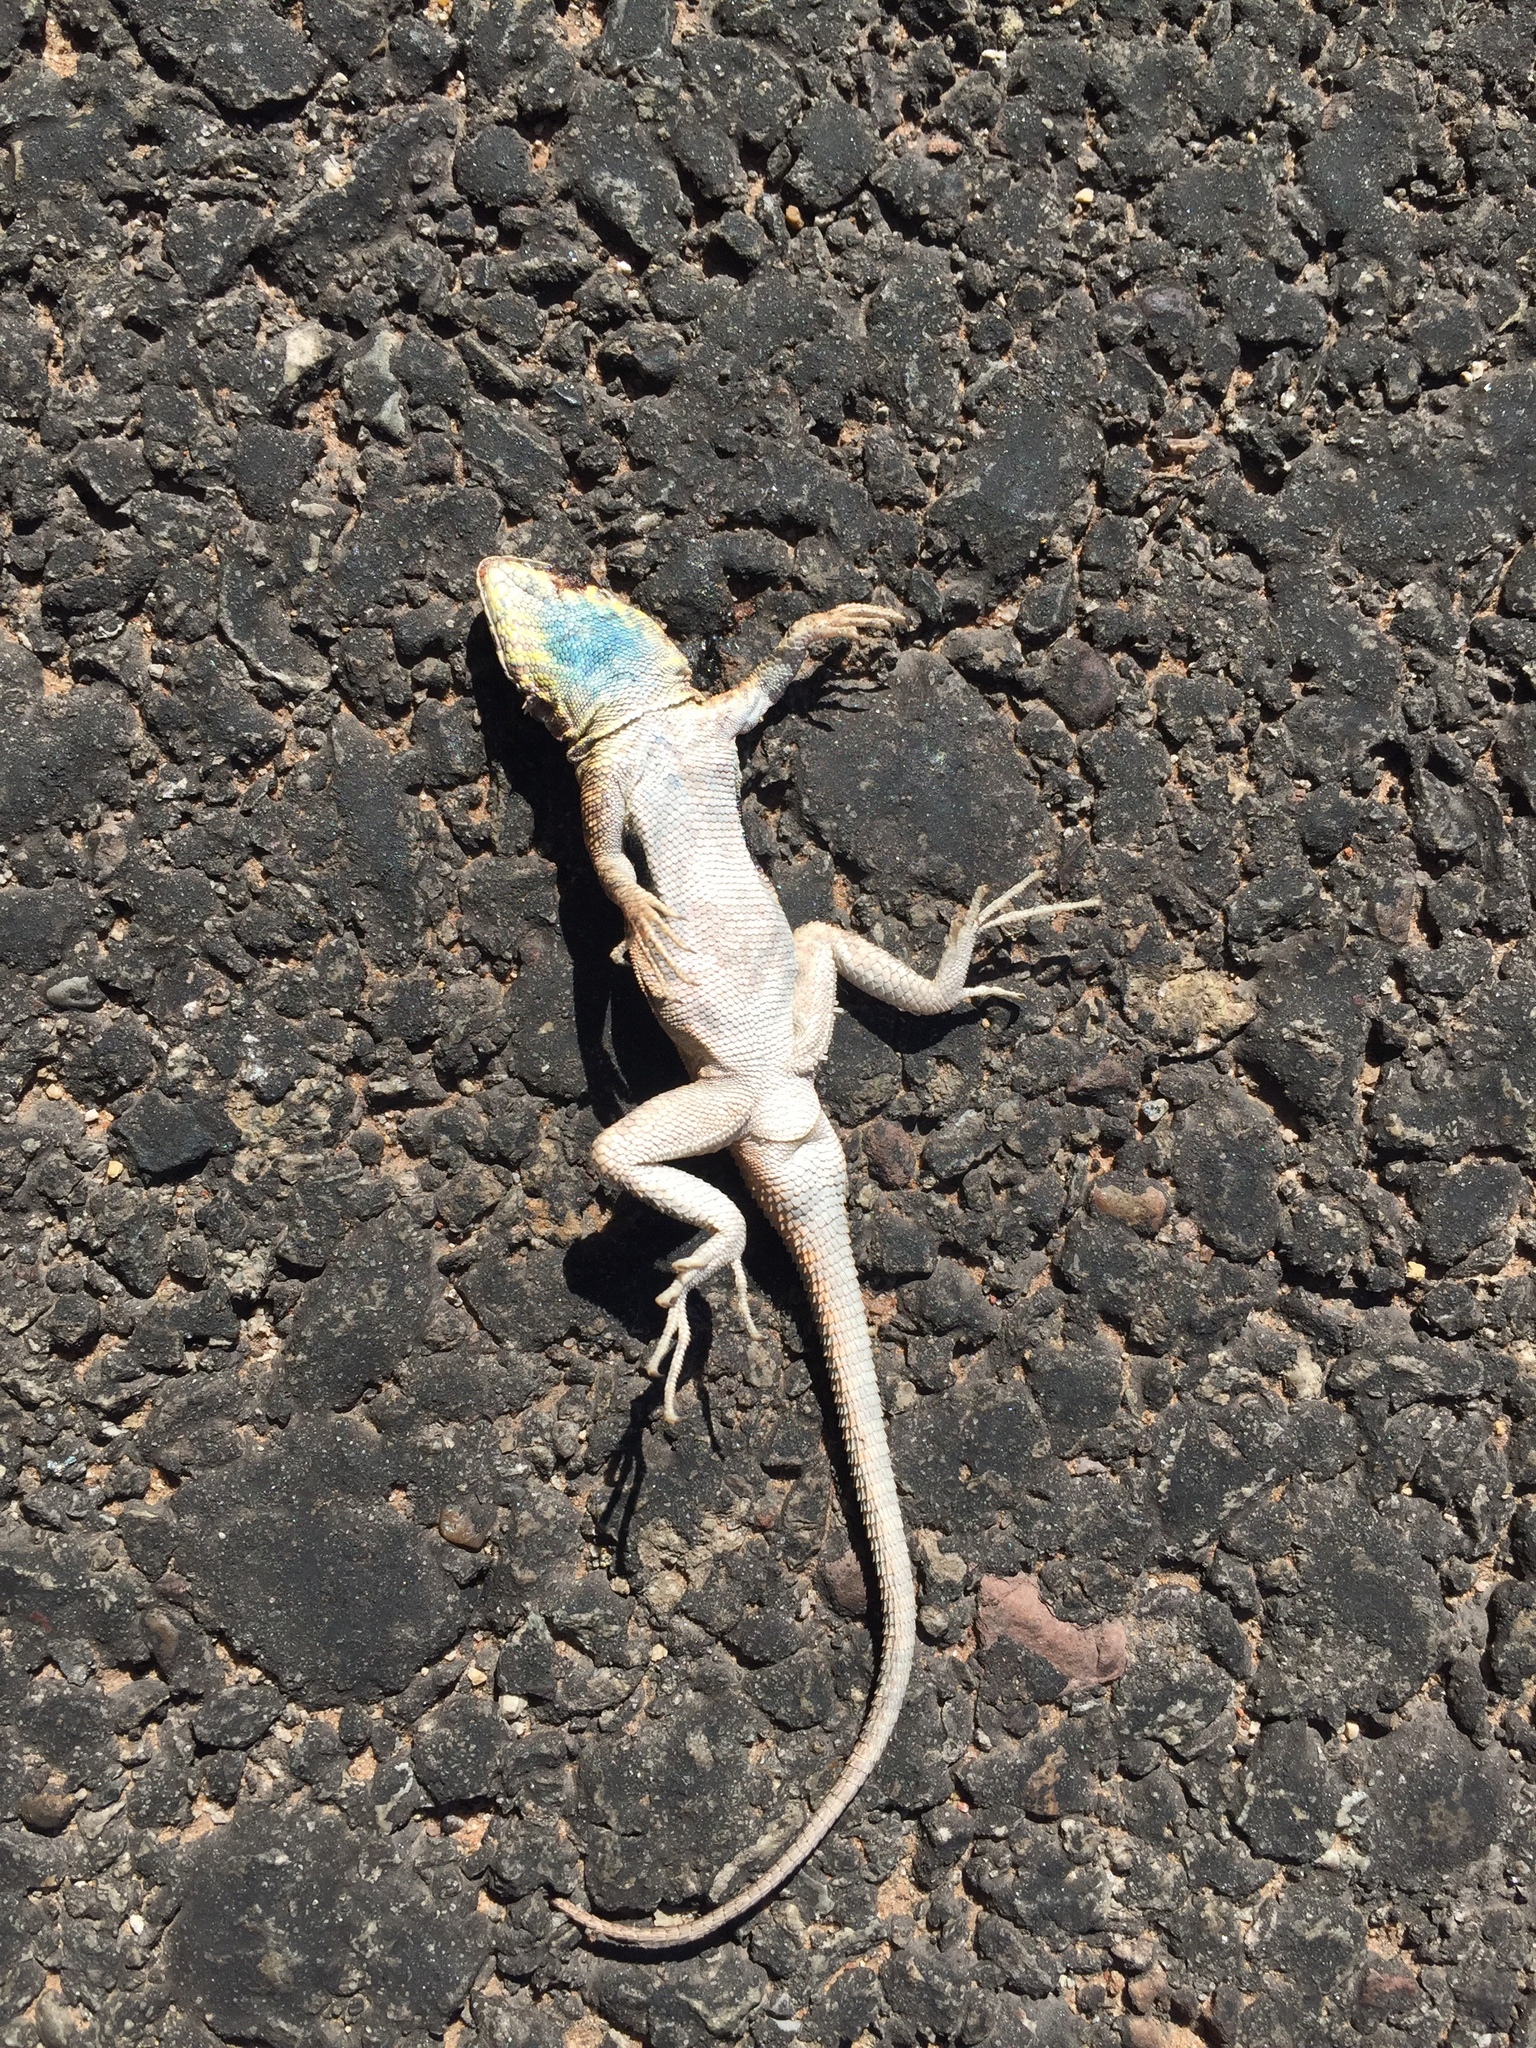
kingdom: Animalia
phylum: Chordata
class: Squamata
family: Phrynosomatidae
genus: Uta
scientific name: Uta stansburiana
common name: Side-blotched lizard
